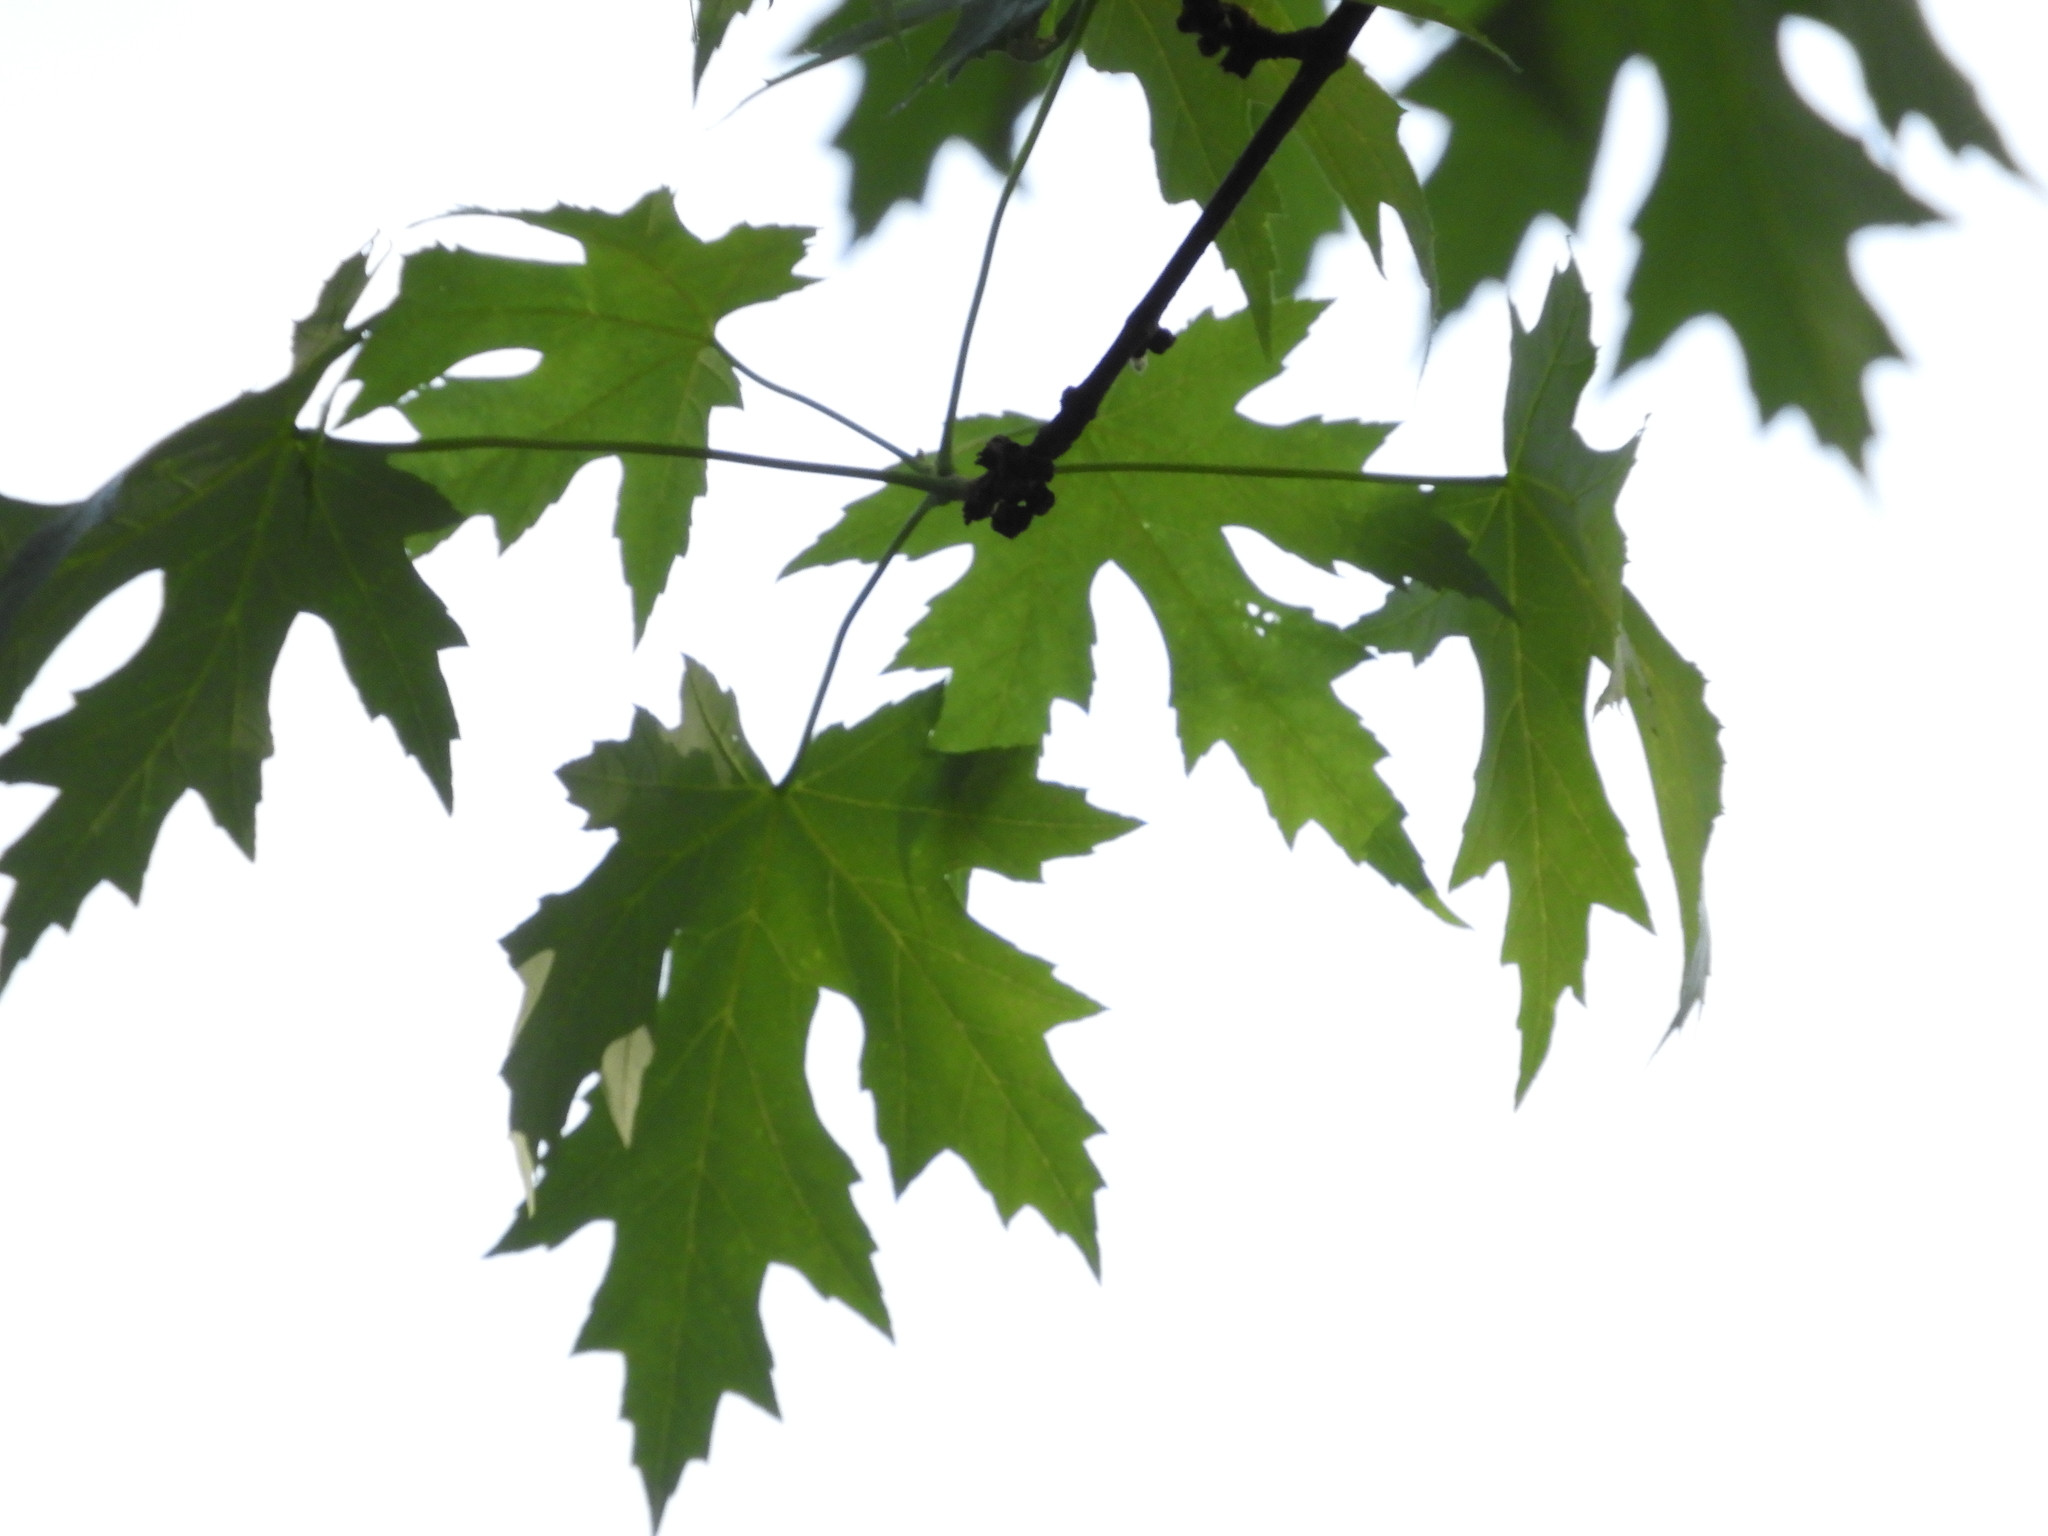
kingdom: Plantae
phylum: Tracheophyta
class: Magnoliopsida
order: Sapindales
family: Sapindaceae
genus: Acer
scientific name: Acer saccharinum
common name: Silver maple
